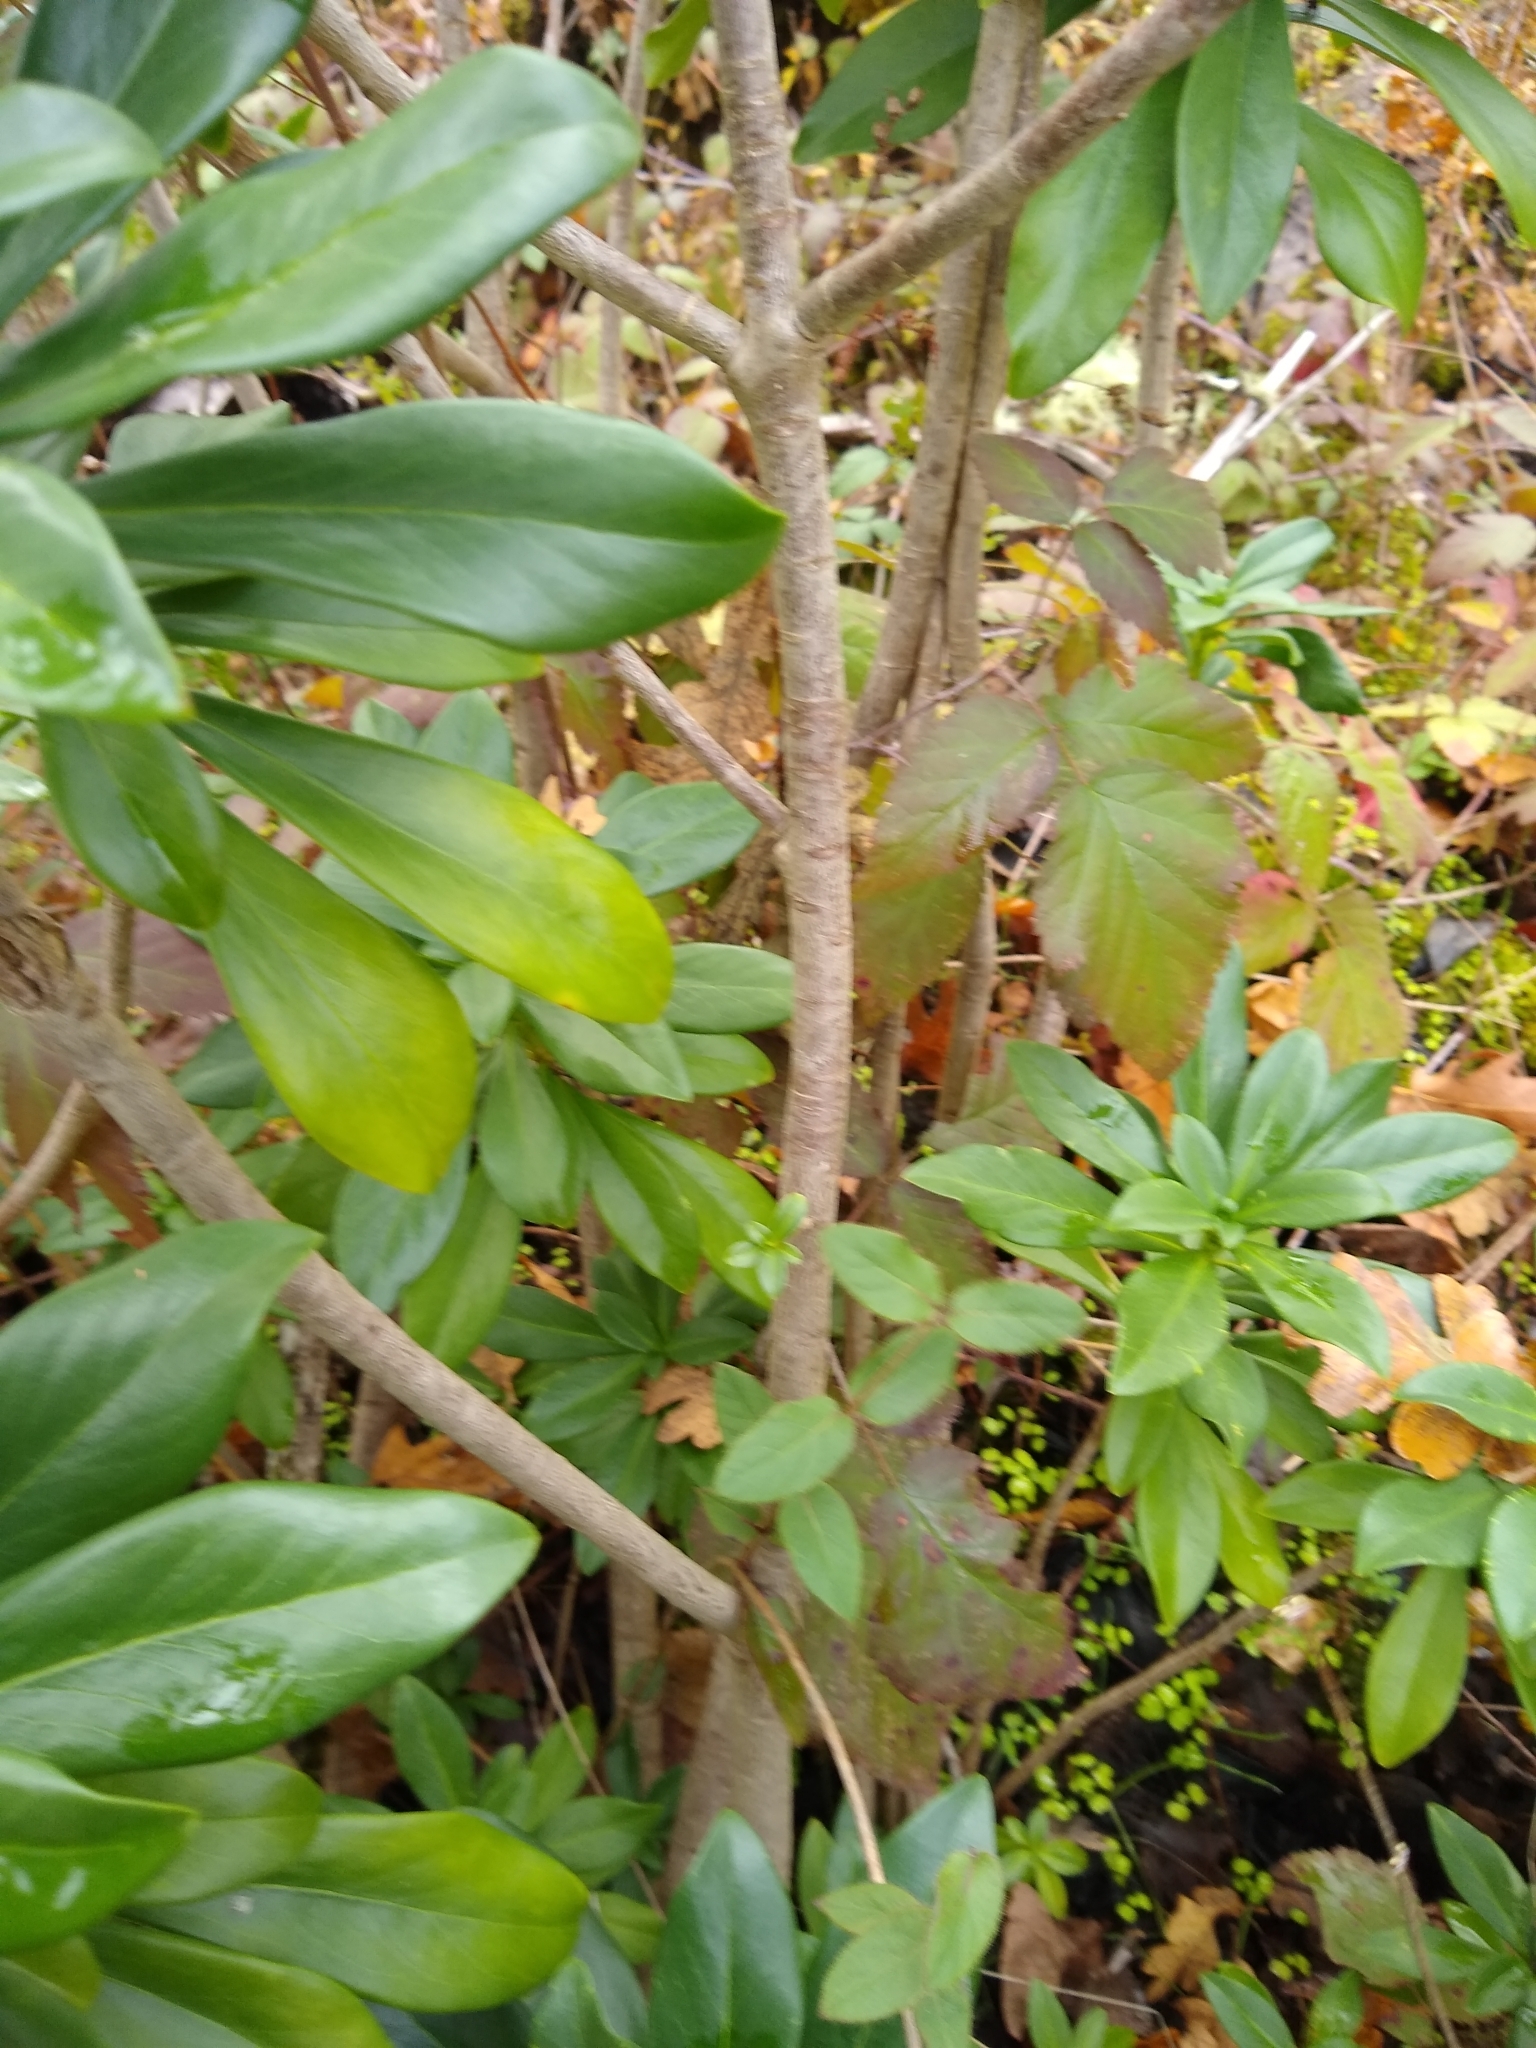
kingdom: Plantae
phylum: Tracheophyta
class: Magnoliopsida
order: Malvales
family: Thymelaeaceae
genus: Daphne
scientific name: Daphne laureola
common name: Spurge-laurel
